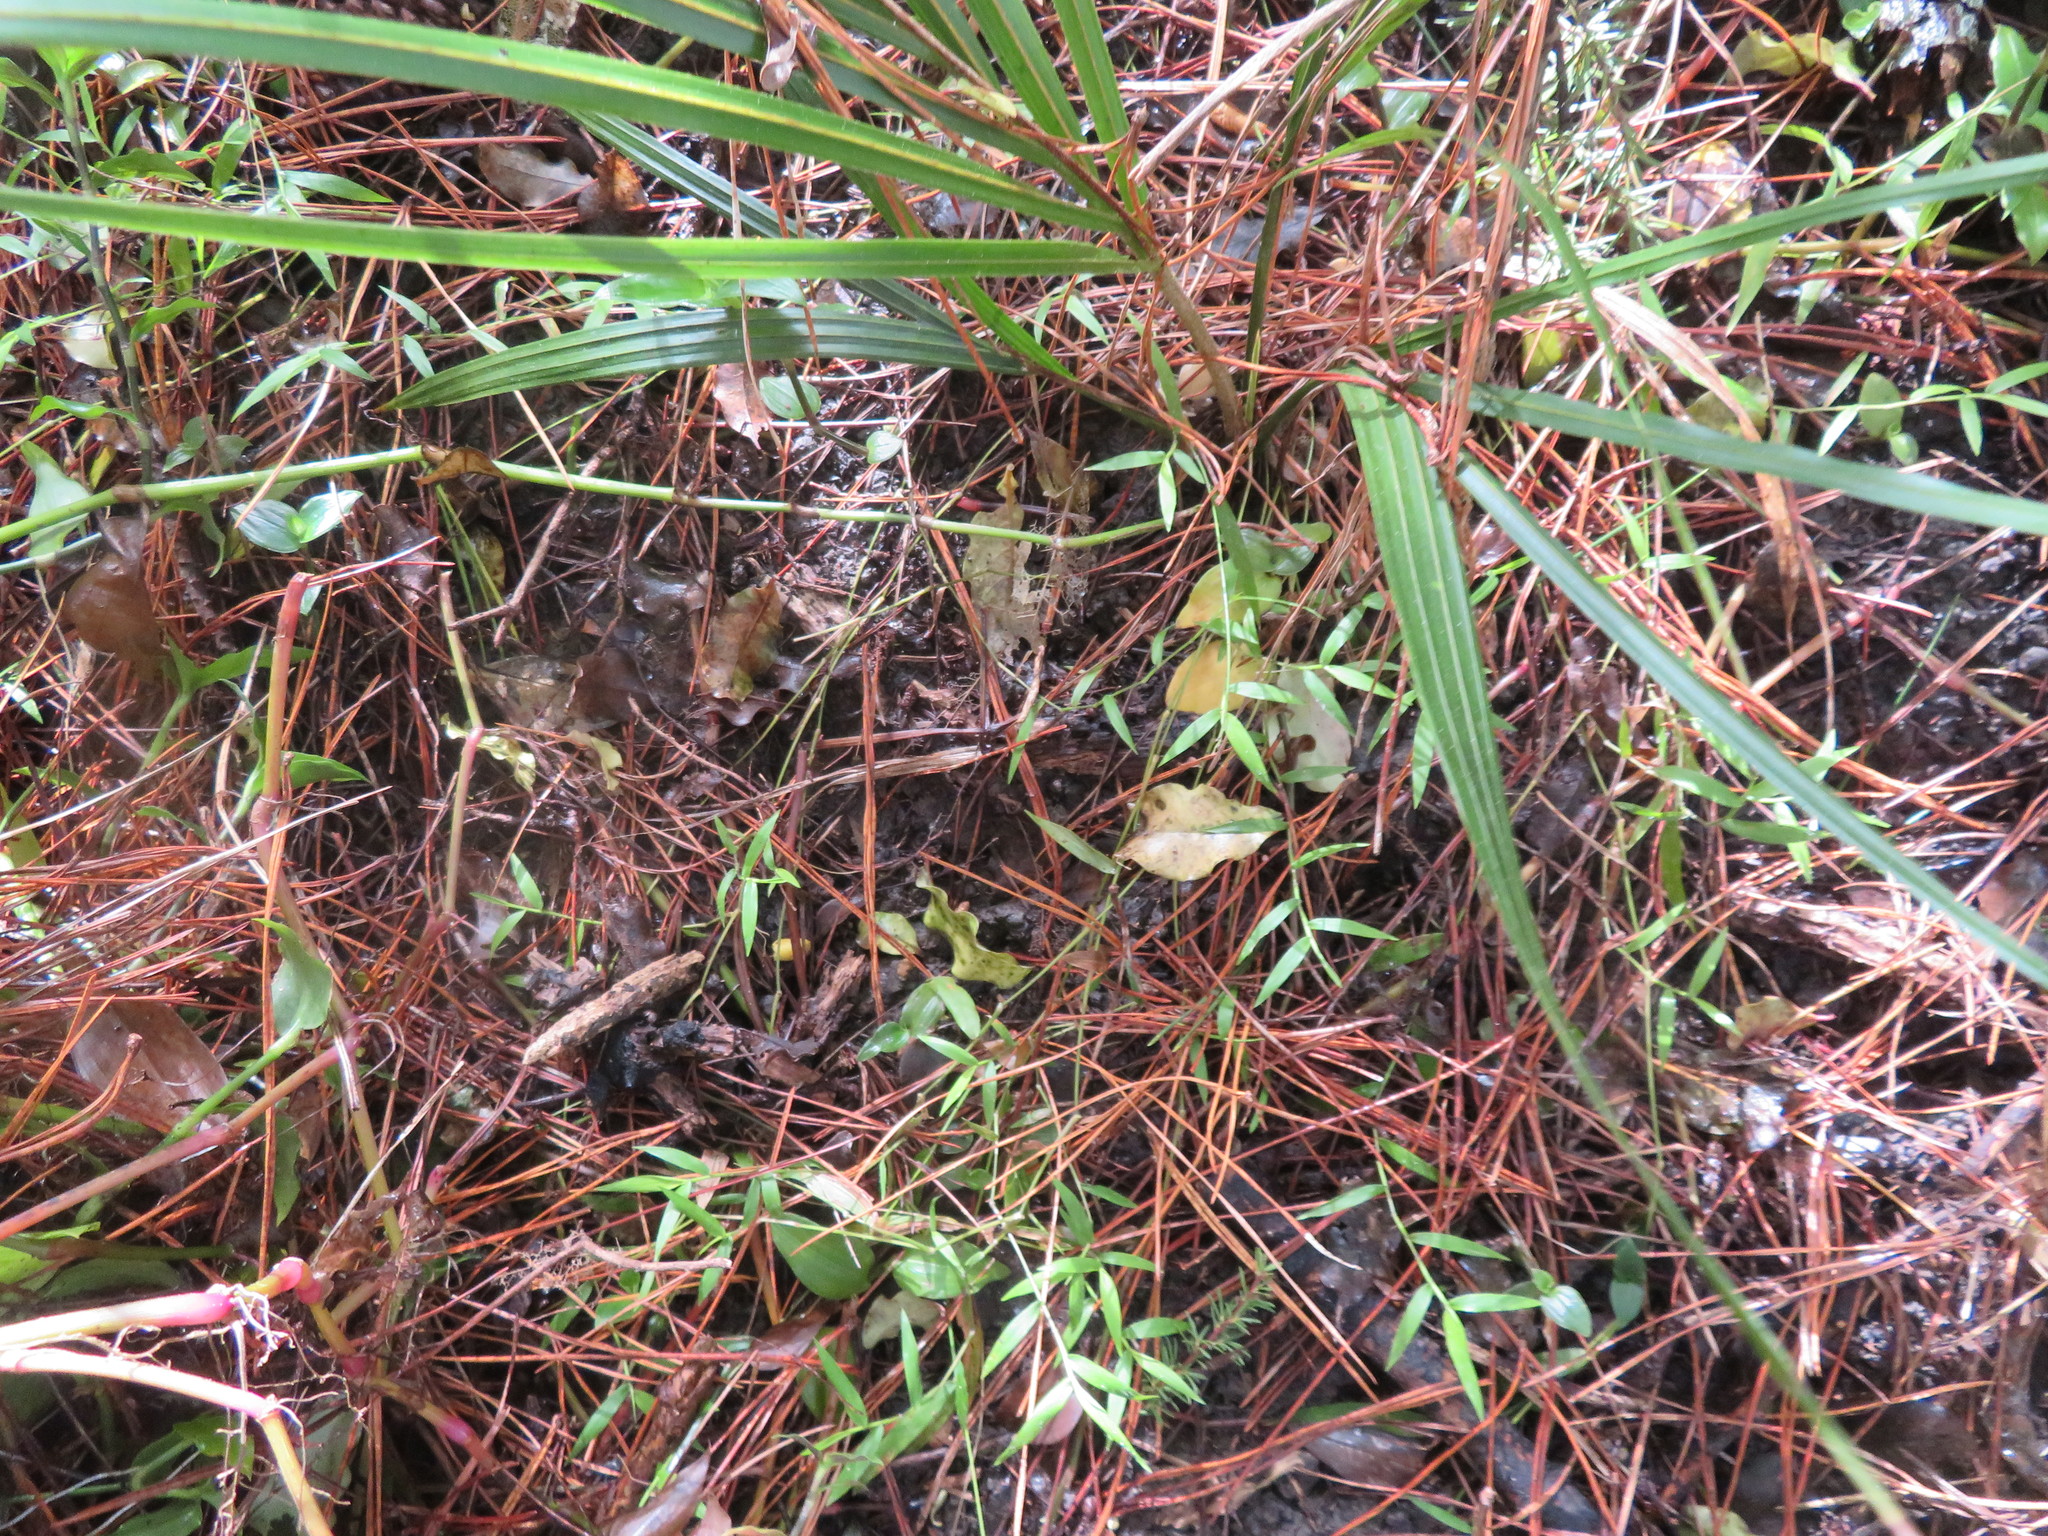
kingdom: Plantae
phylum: Tracheophyta
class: Liliopsida
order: Commelinales
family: Commelinaceae
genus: Tradescantia
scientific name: Tradescantia fluminensis
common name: Wandering-jew
